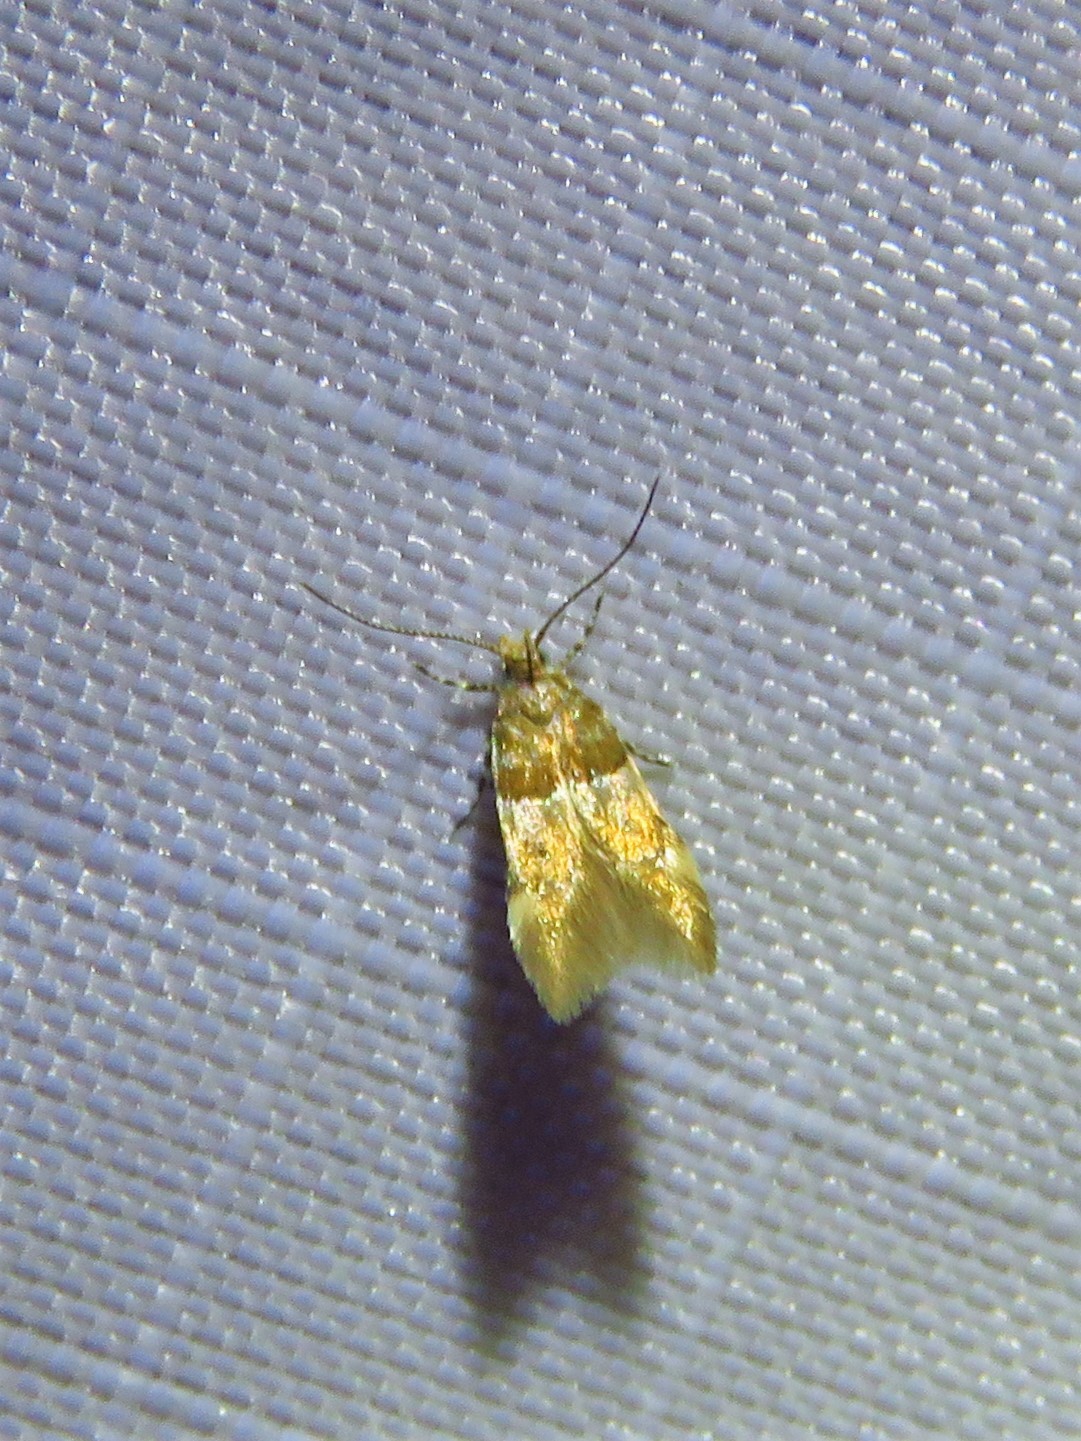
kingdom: Animalia
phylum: Arthropoda
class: Insecta
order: Lepidoptera
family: Gelechiidae
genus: Theisoa
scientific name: Theisoa constrictella
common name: Constricted twirler
